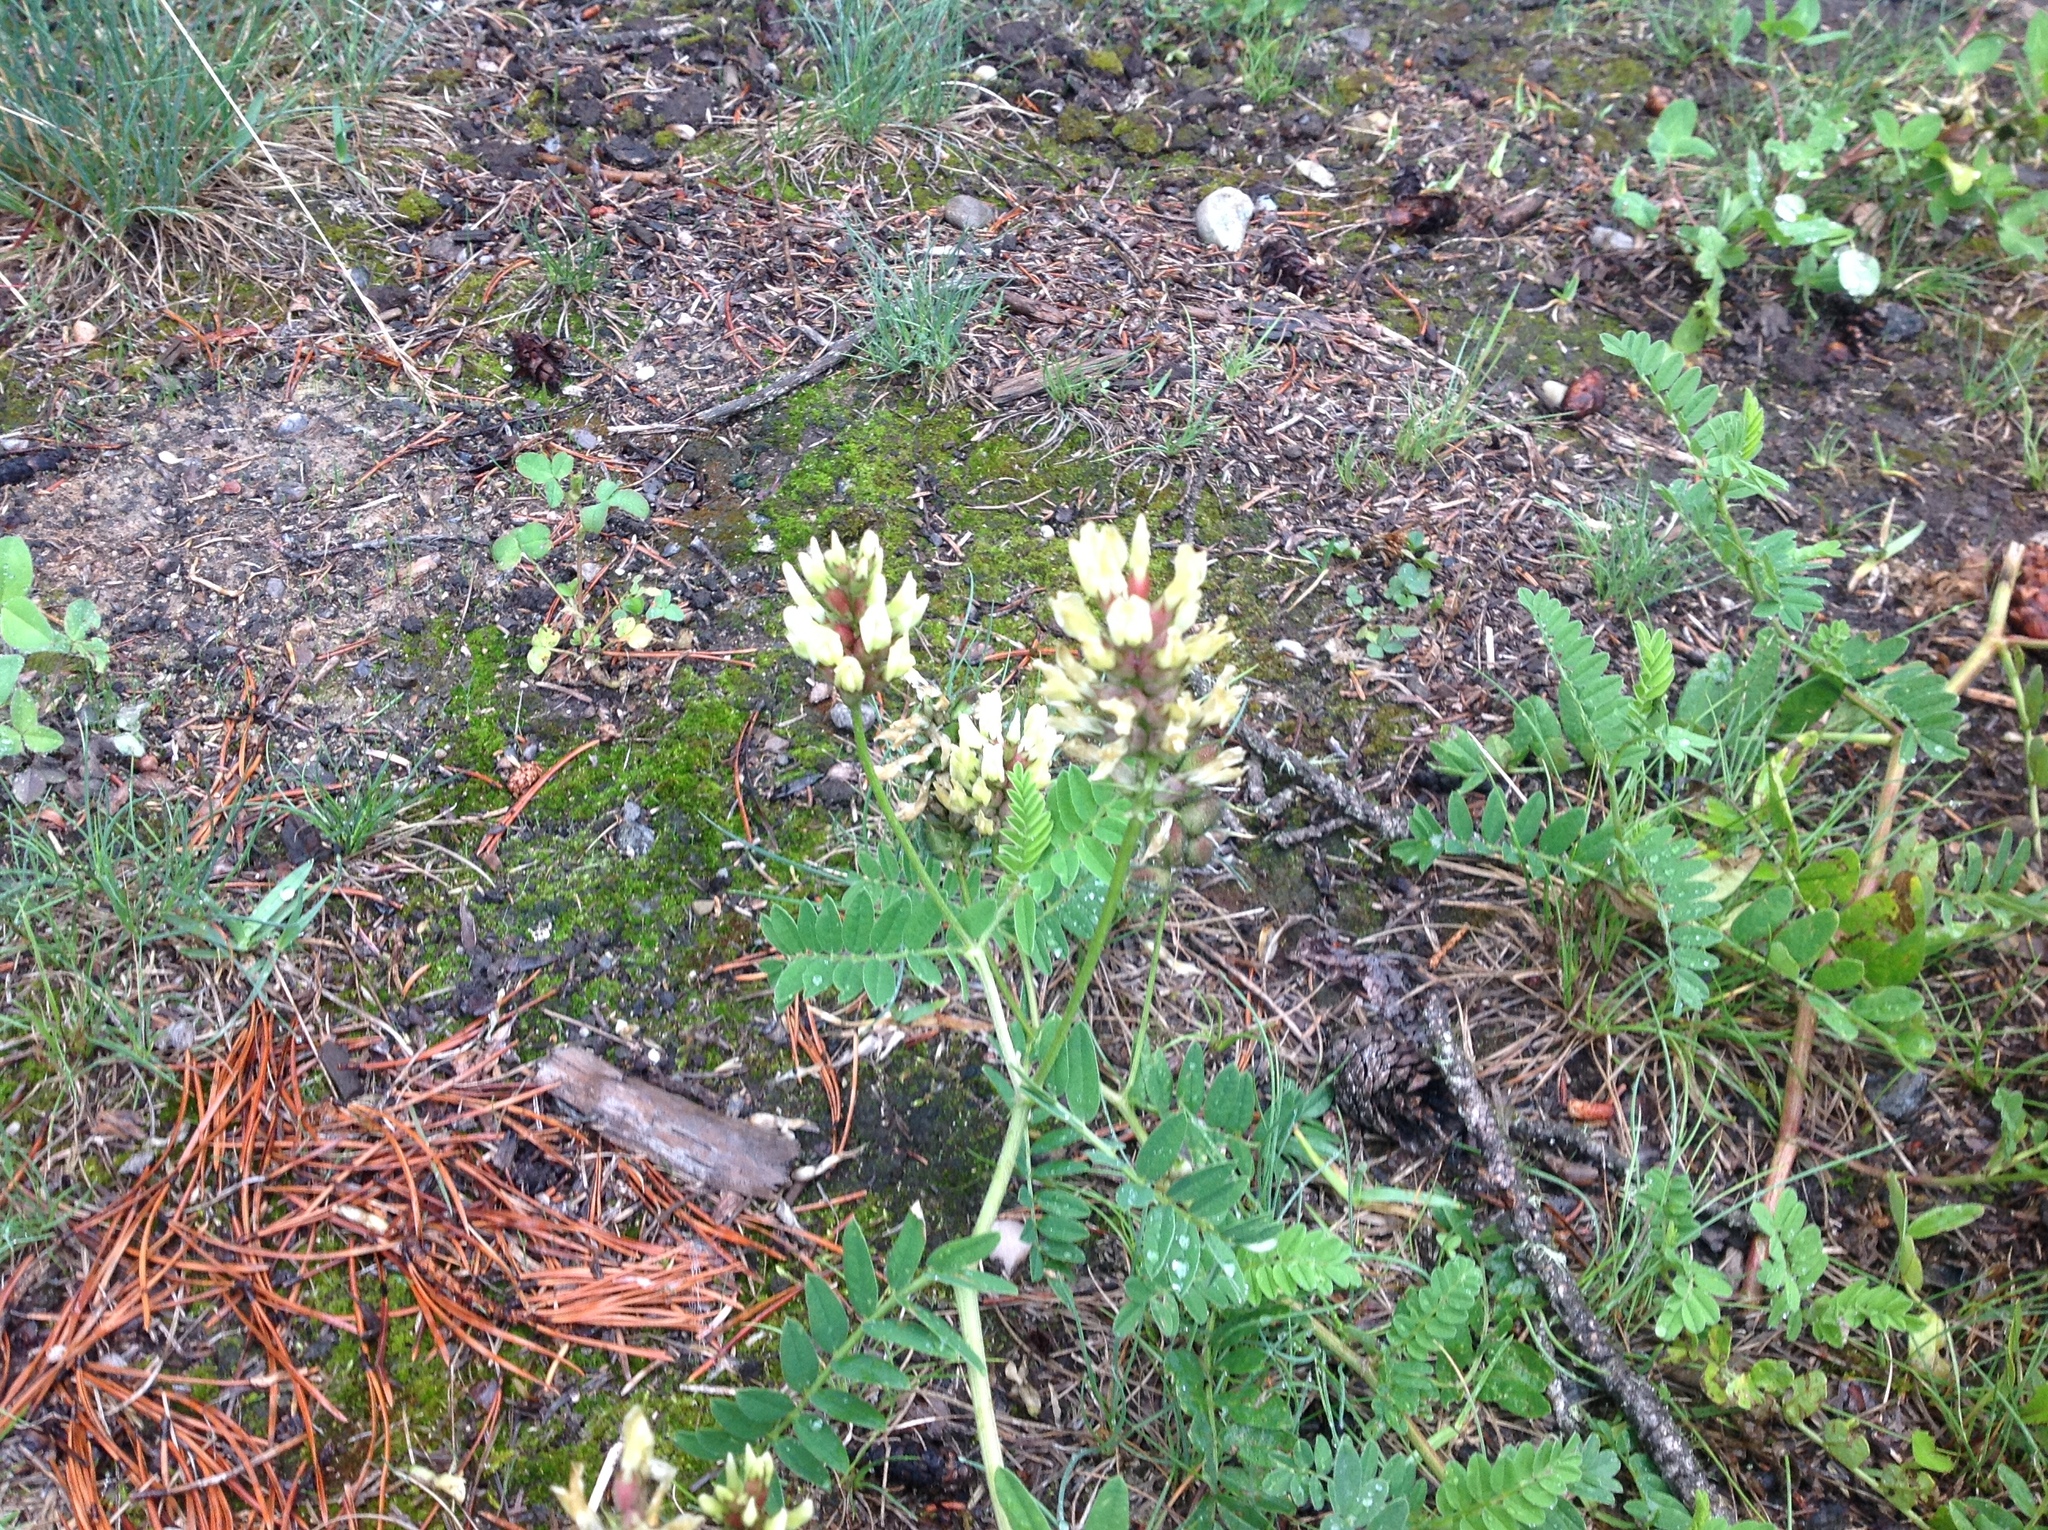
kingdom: Plantae
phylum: Tracheophyta
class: Magnoliopsida
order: Fabales
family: Fabaceae
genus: Astragalus
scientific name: Astragalus cicer
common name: Chick-pea milk-vetch
